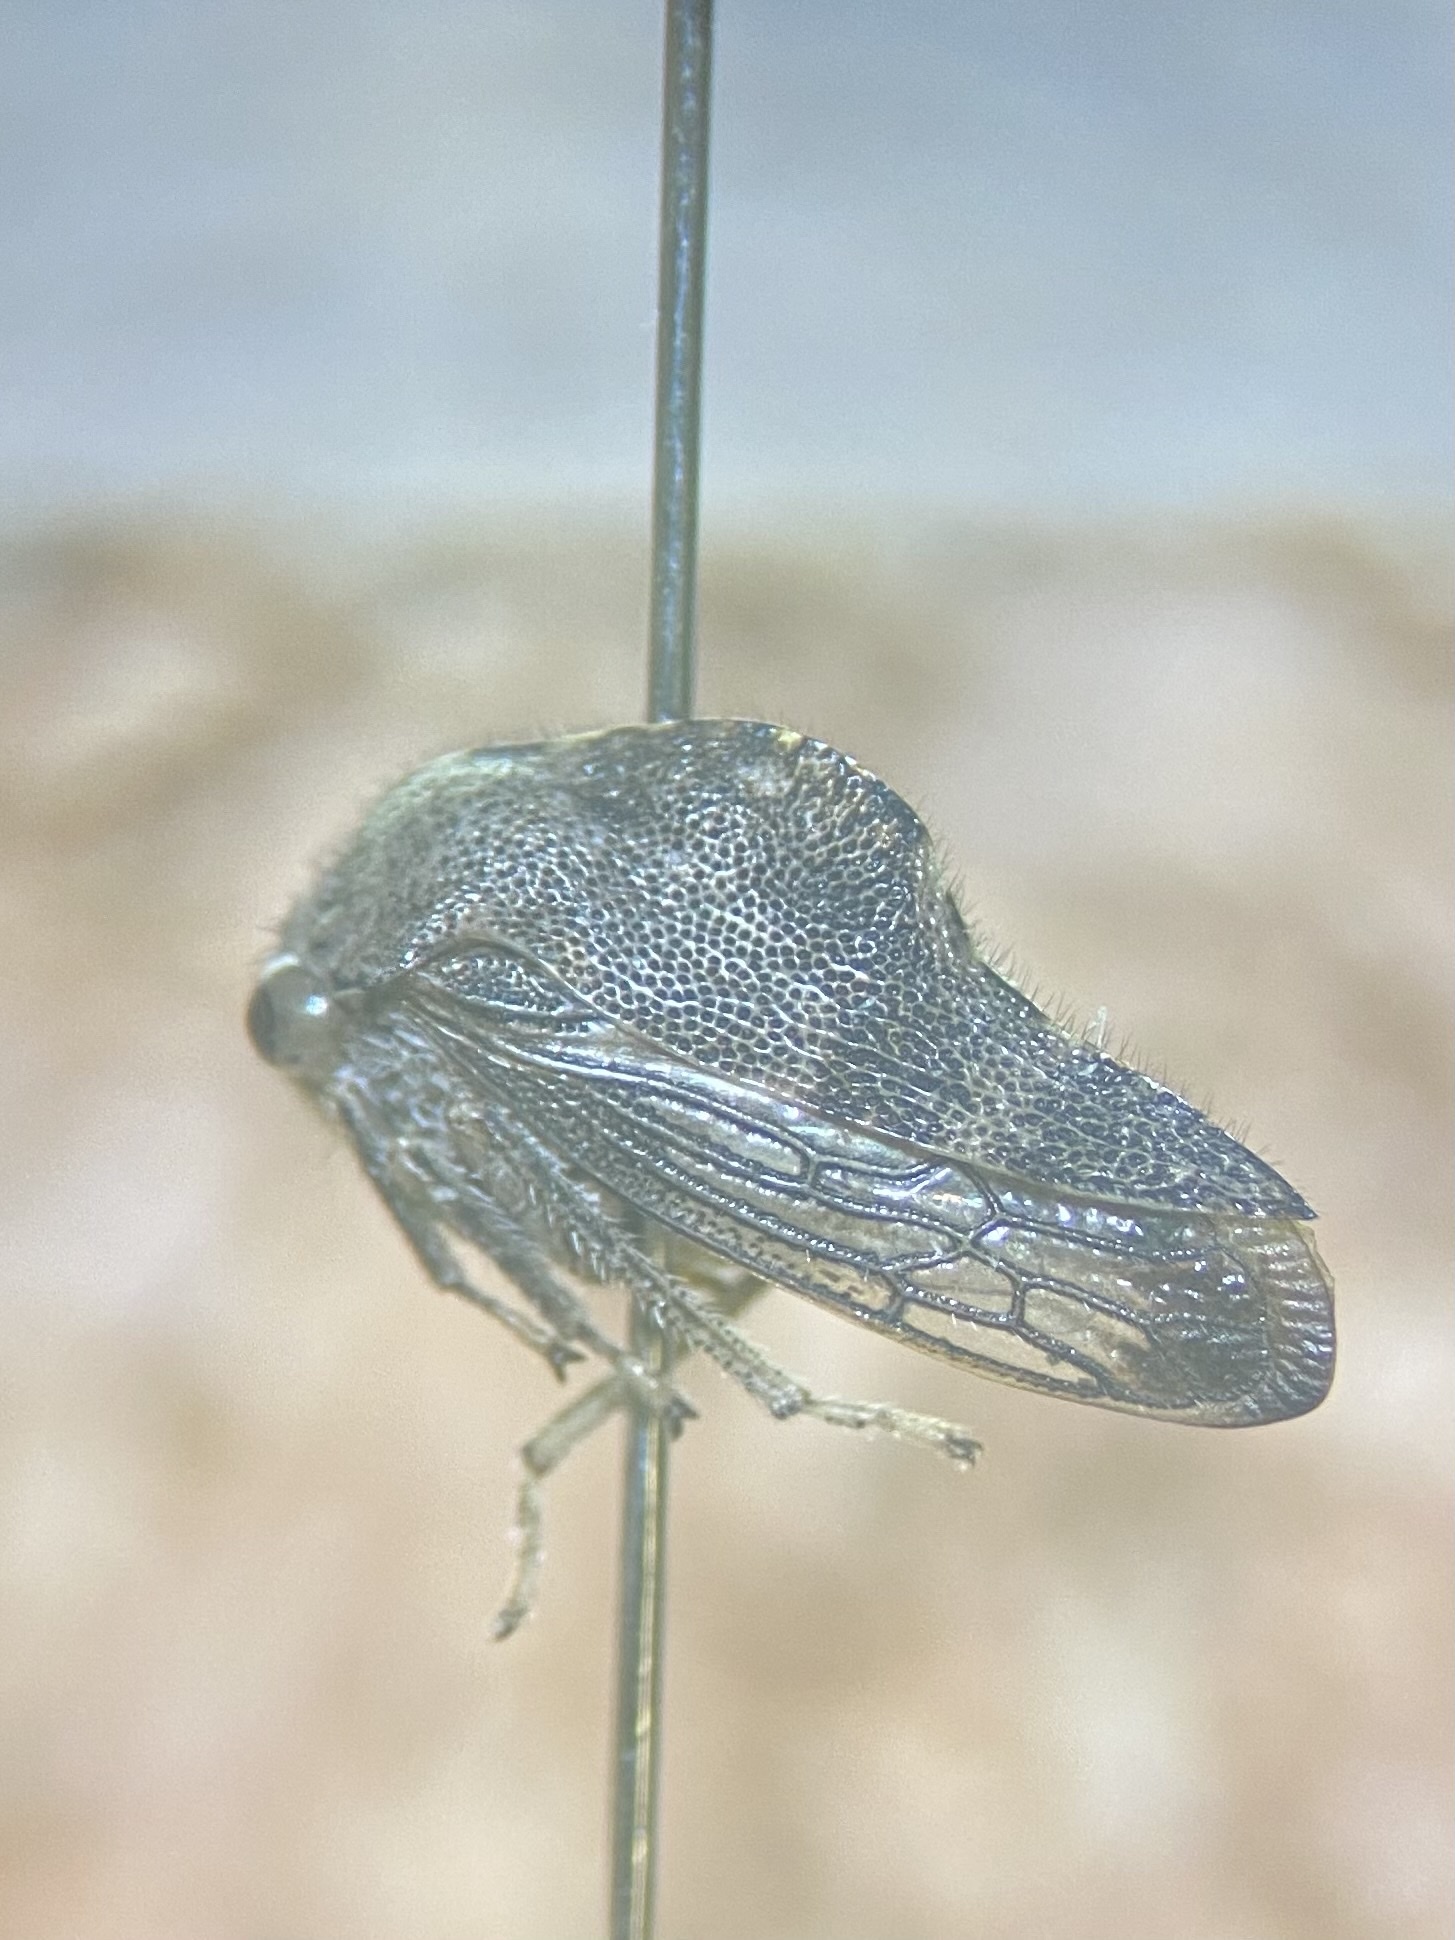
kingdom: Animalia
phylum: Arthropoda
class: Insecta
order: Hemiptera
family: Membracidae
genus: Telamona
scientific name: Telamona reclivata
